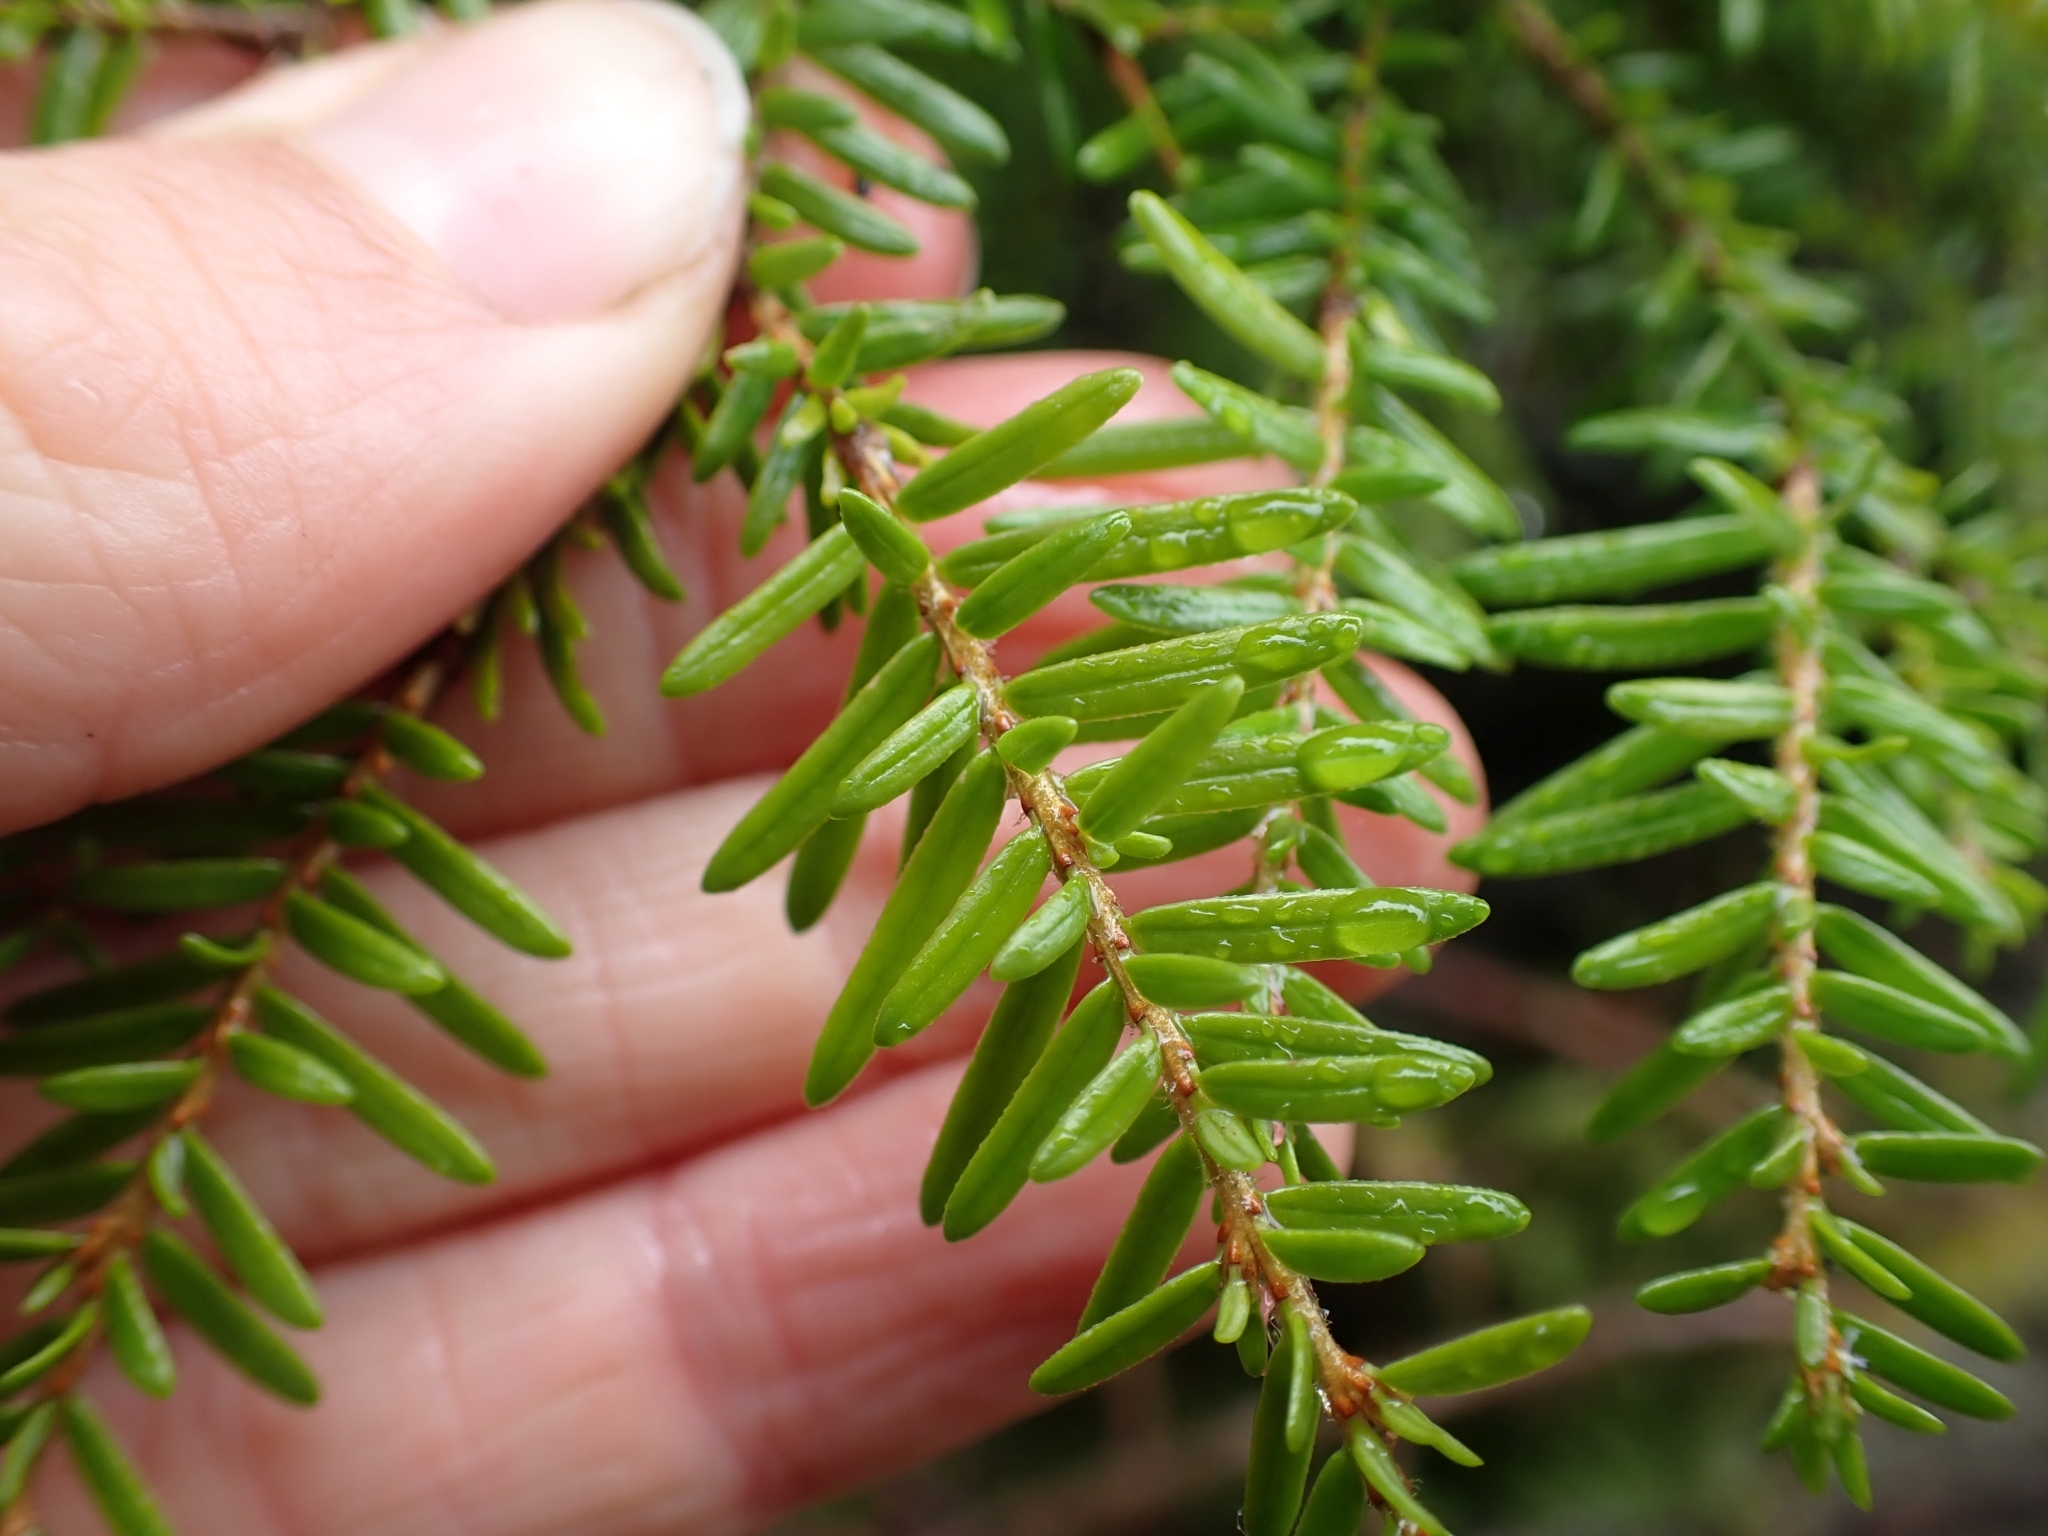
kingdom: Plantae
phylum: Tracheophyta
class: Pinopsida
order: Pinales
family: Pinaceae
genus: Tsuga
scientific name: Tsuga heterophylla
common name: Western hemlock
